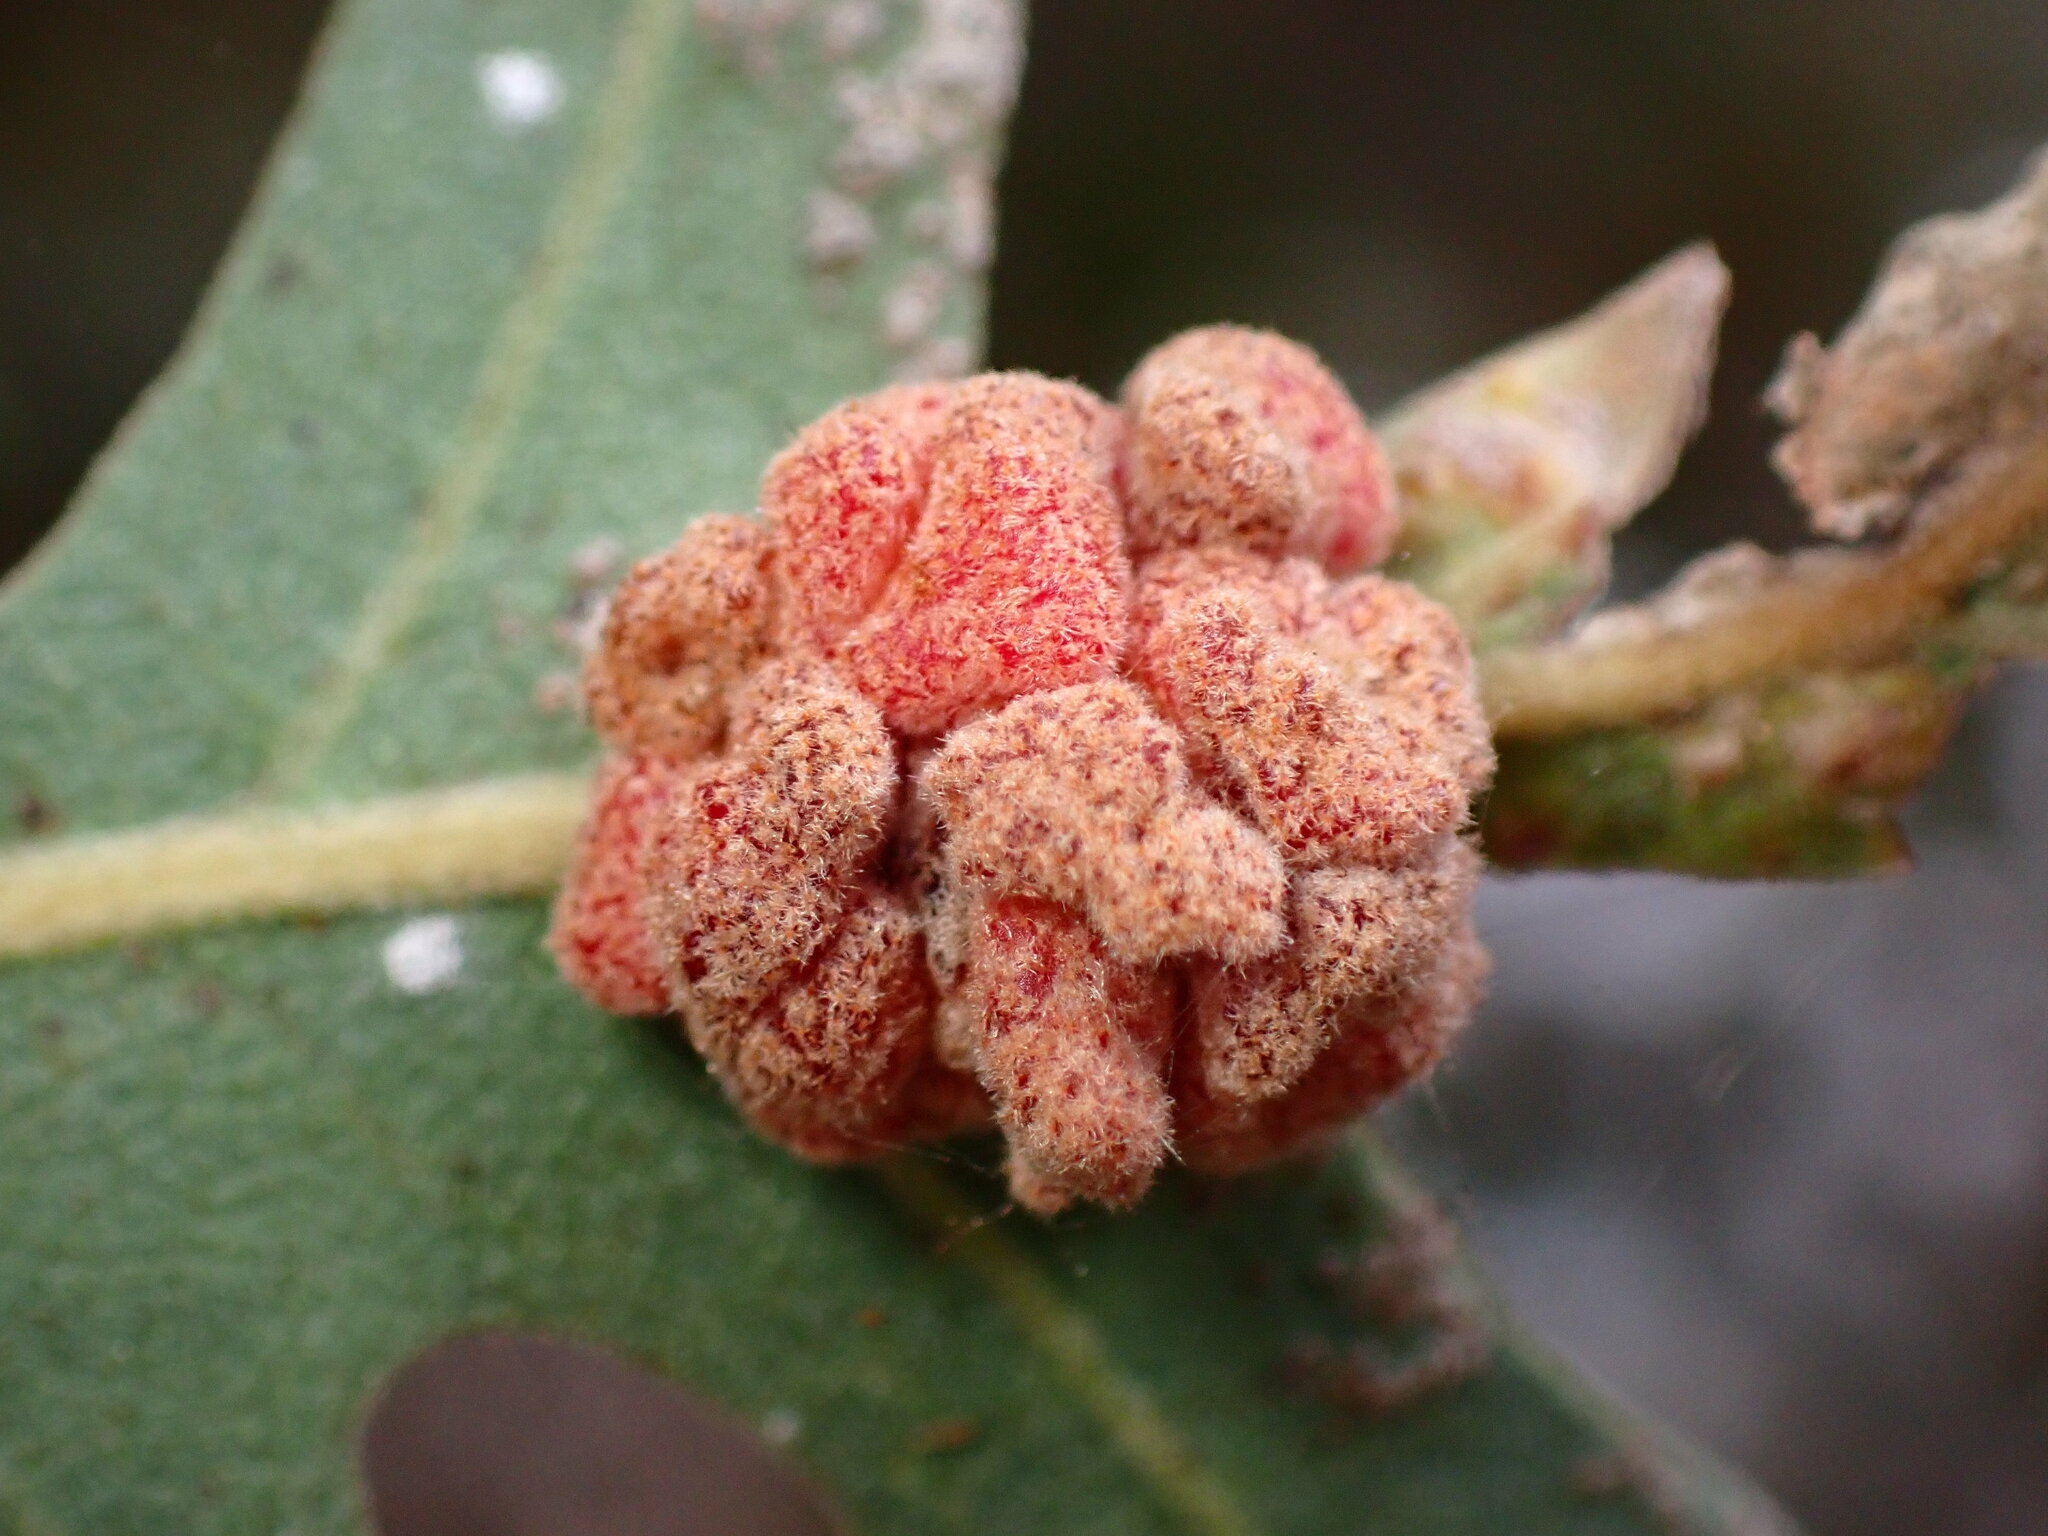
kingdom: Animalia
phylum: Arthropoda
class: Insecta
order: Hymenoptera
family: Cynipidae
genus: Andricus
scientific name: Andricus
